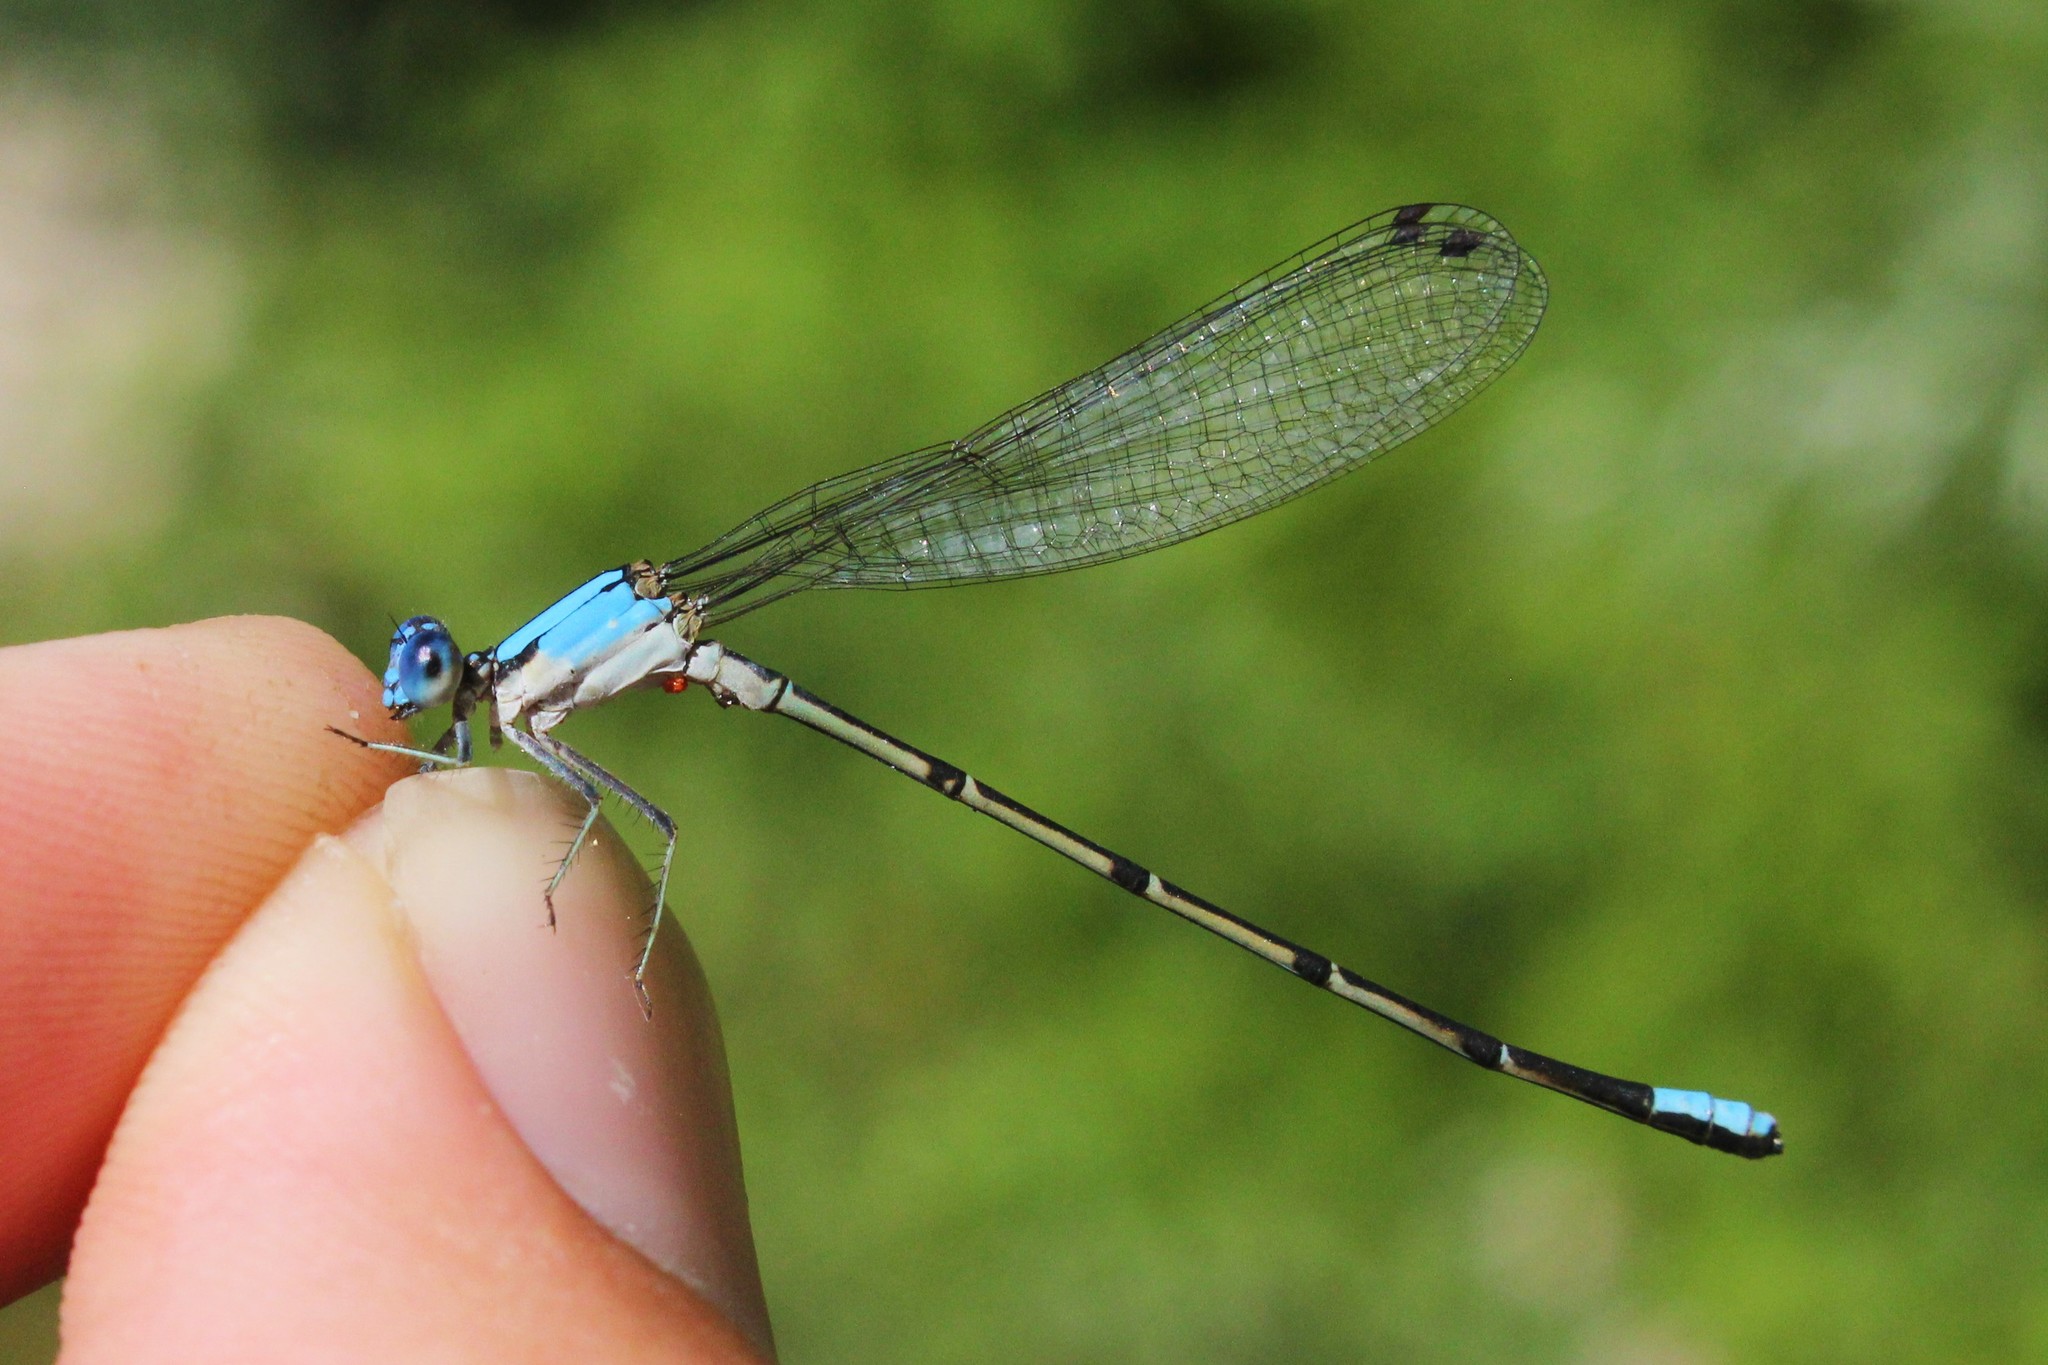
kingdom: Animalia
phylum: Arthropoda
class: Insecta
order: Odonata
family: Coenagrionidae
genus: Argia
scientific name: Argia apicalis
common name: Blue-fronted dancer
